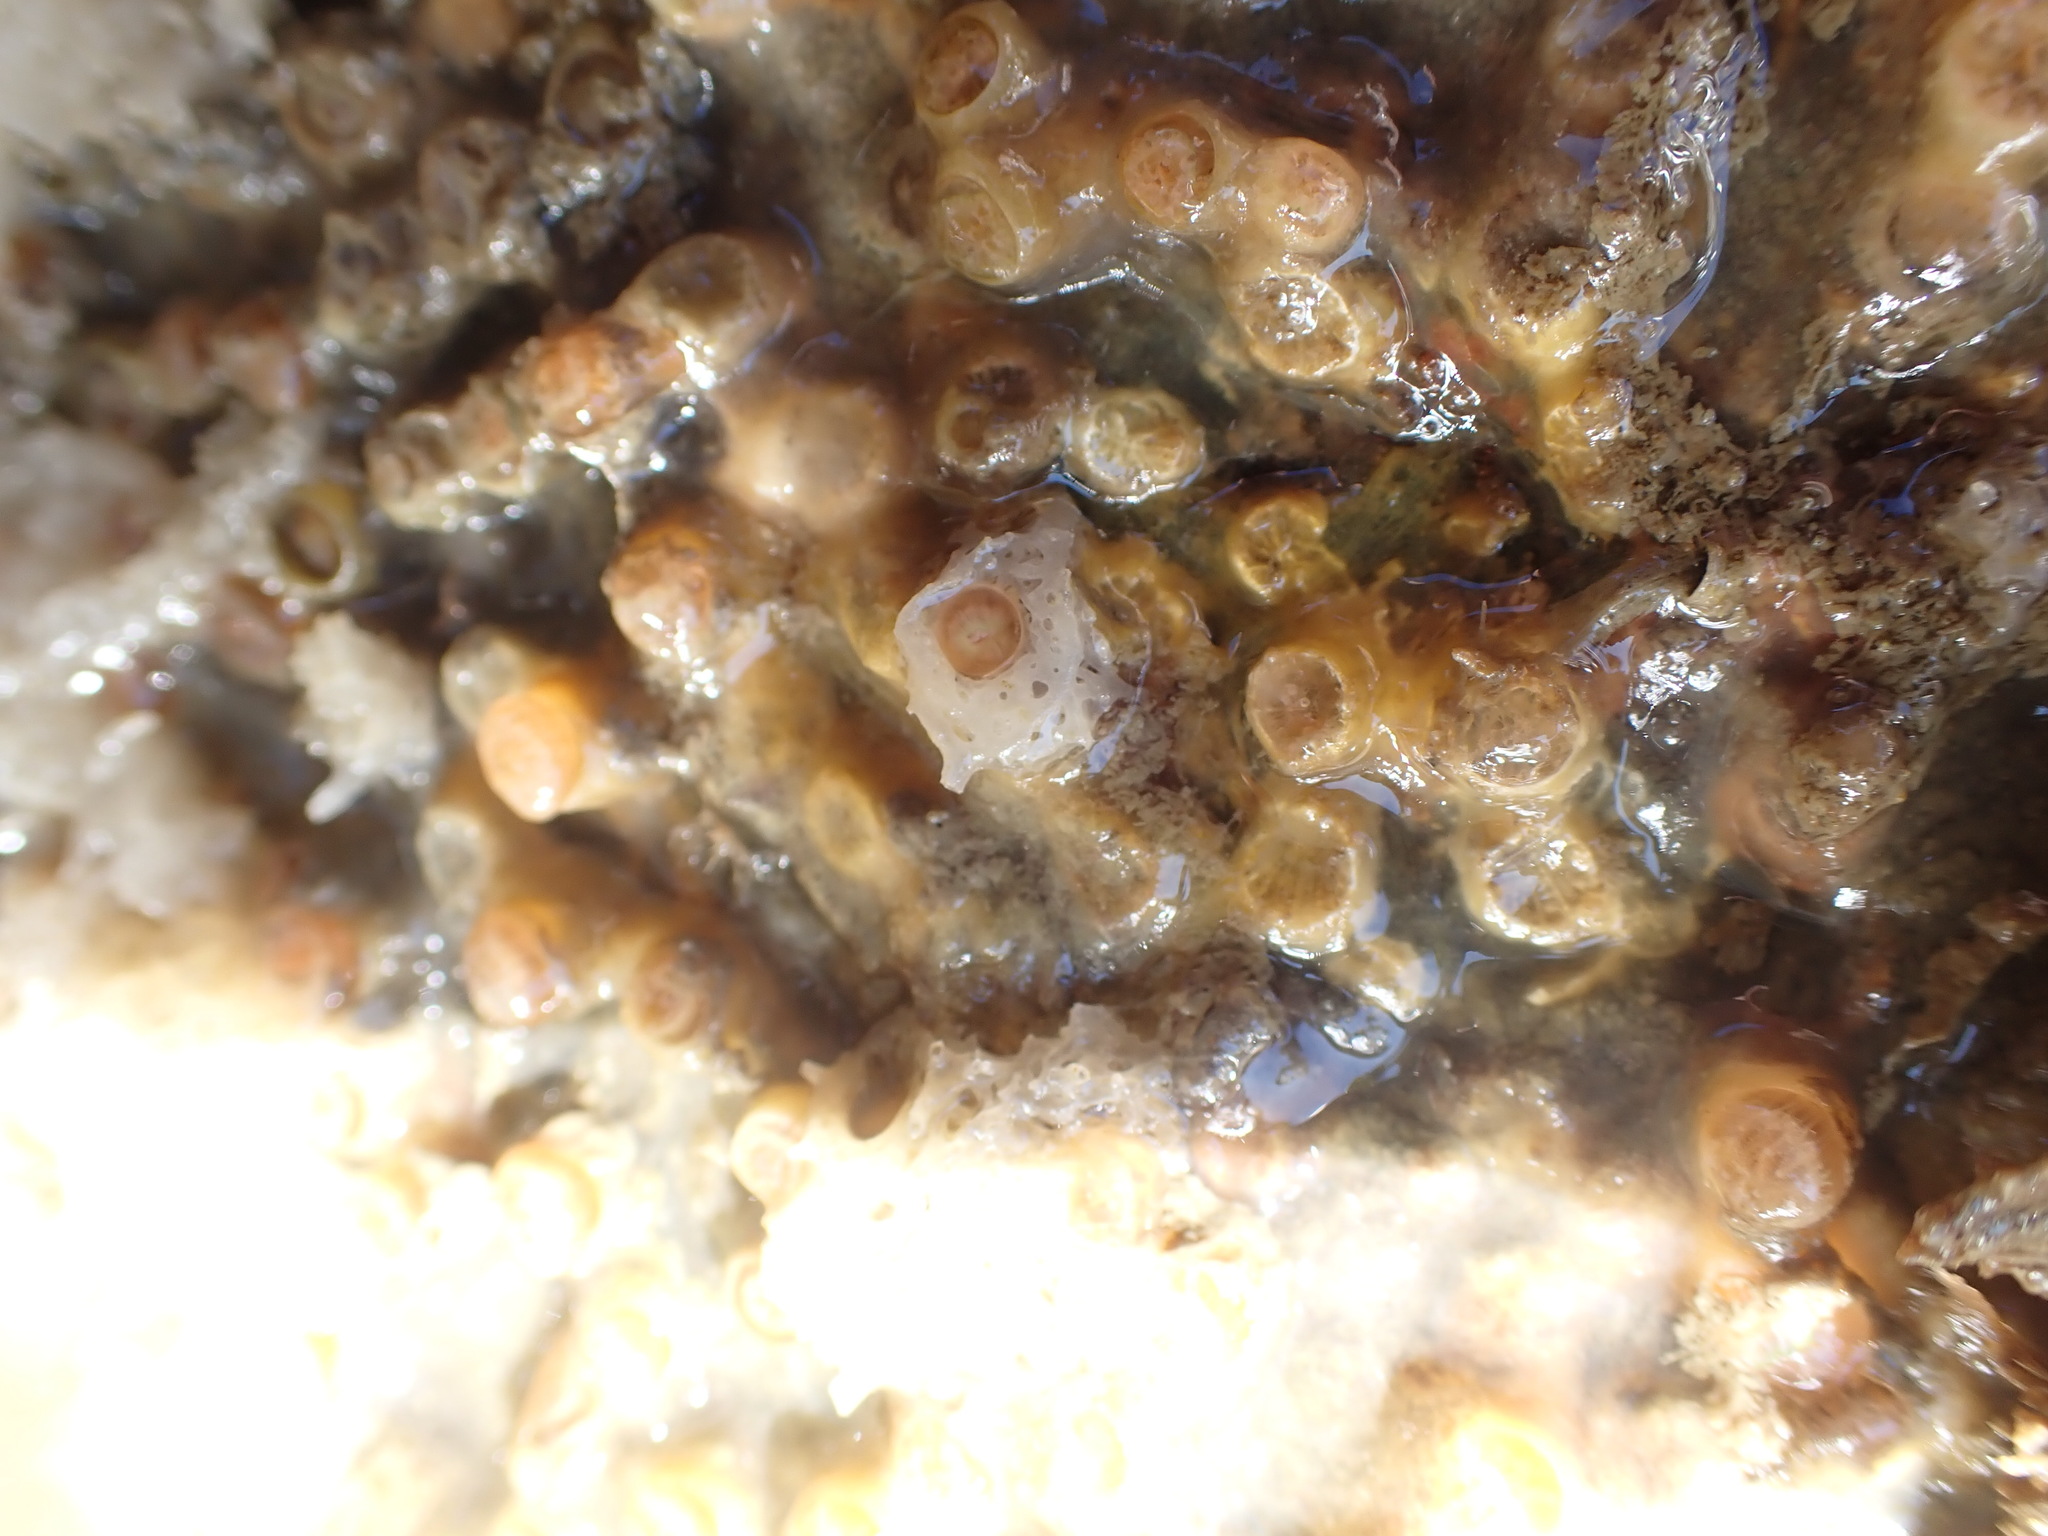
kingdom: Animalia
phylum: Cnidaria
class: Anthozoa
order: Scleractinia
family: Rhizangiidae
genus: Culicia
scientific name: Culicia rubeola
